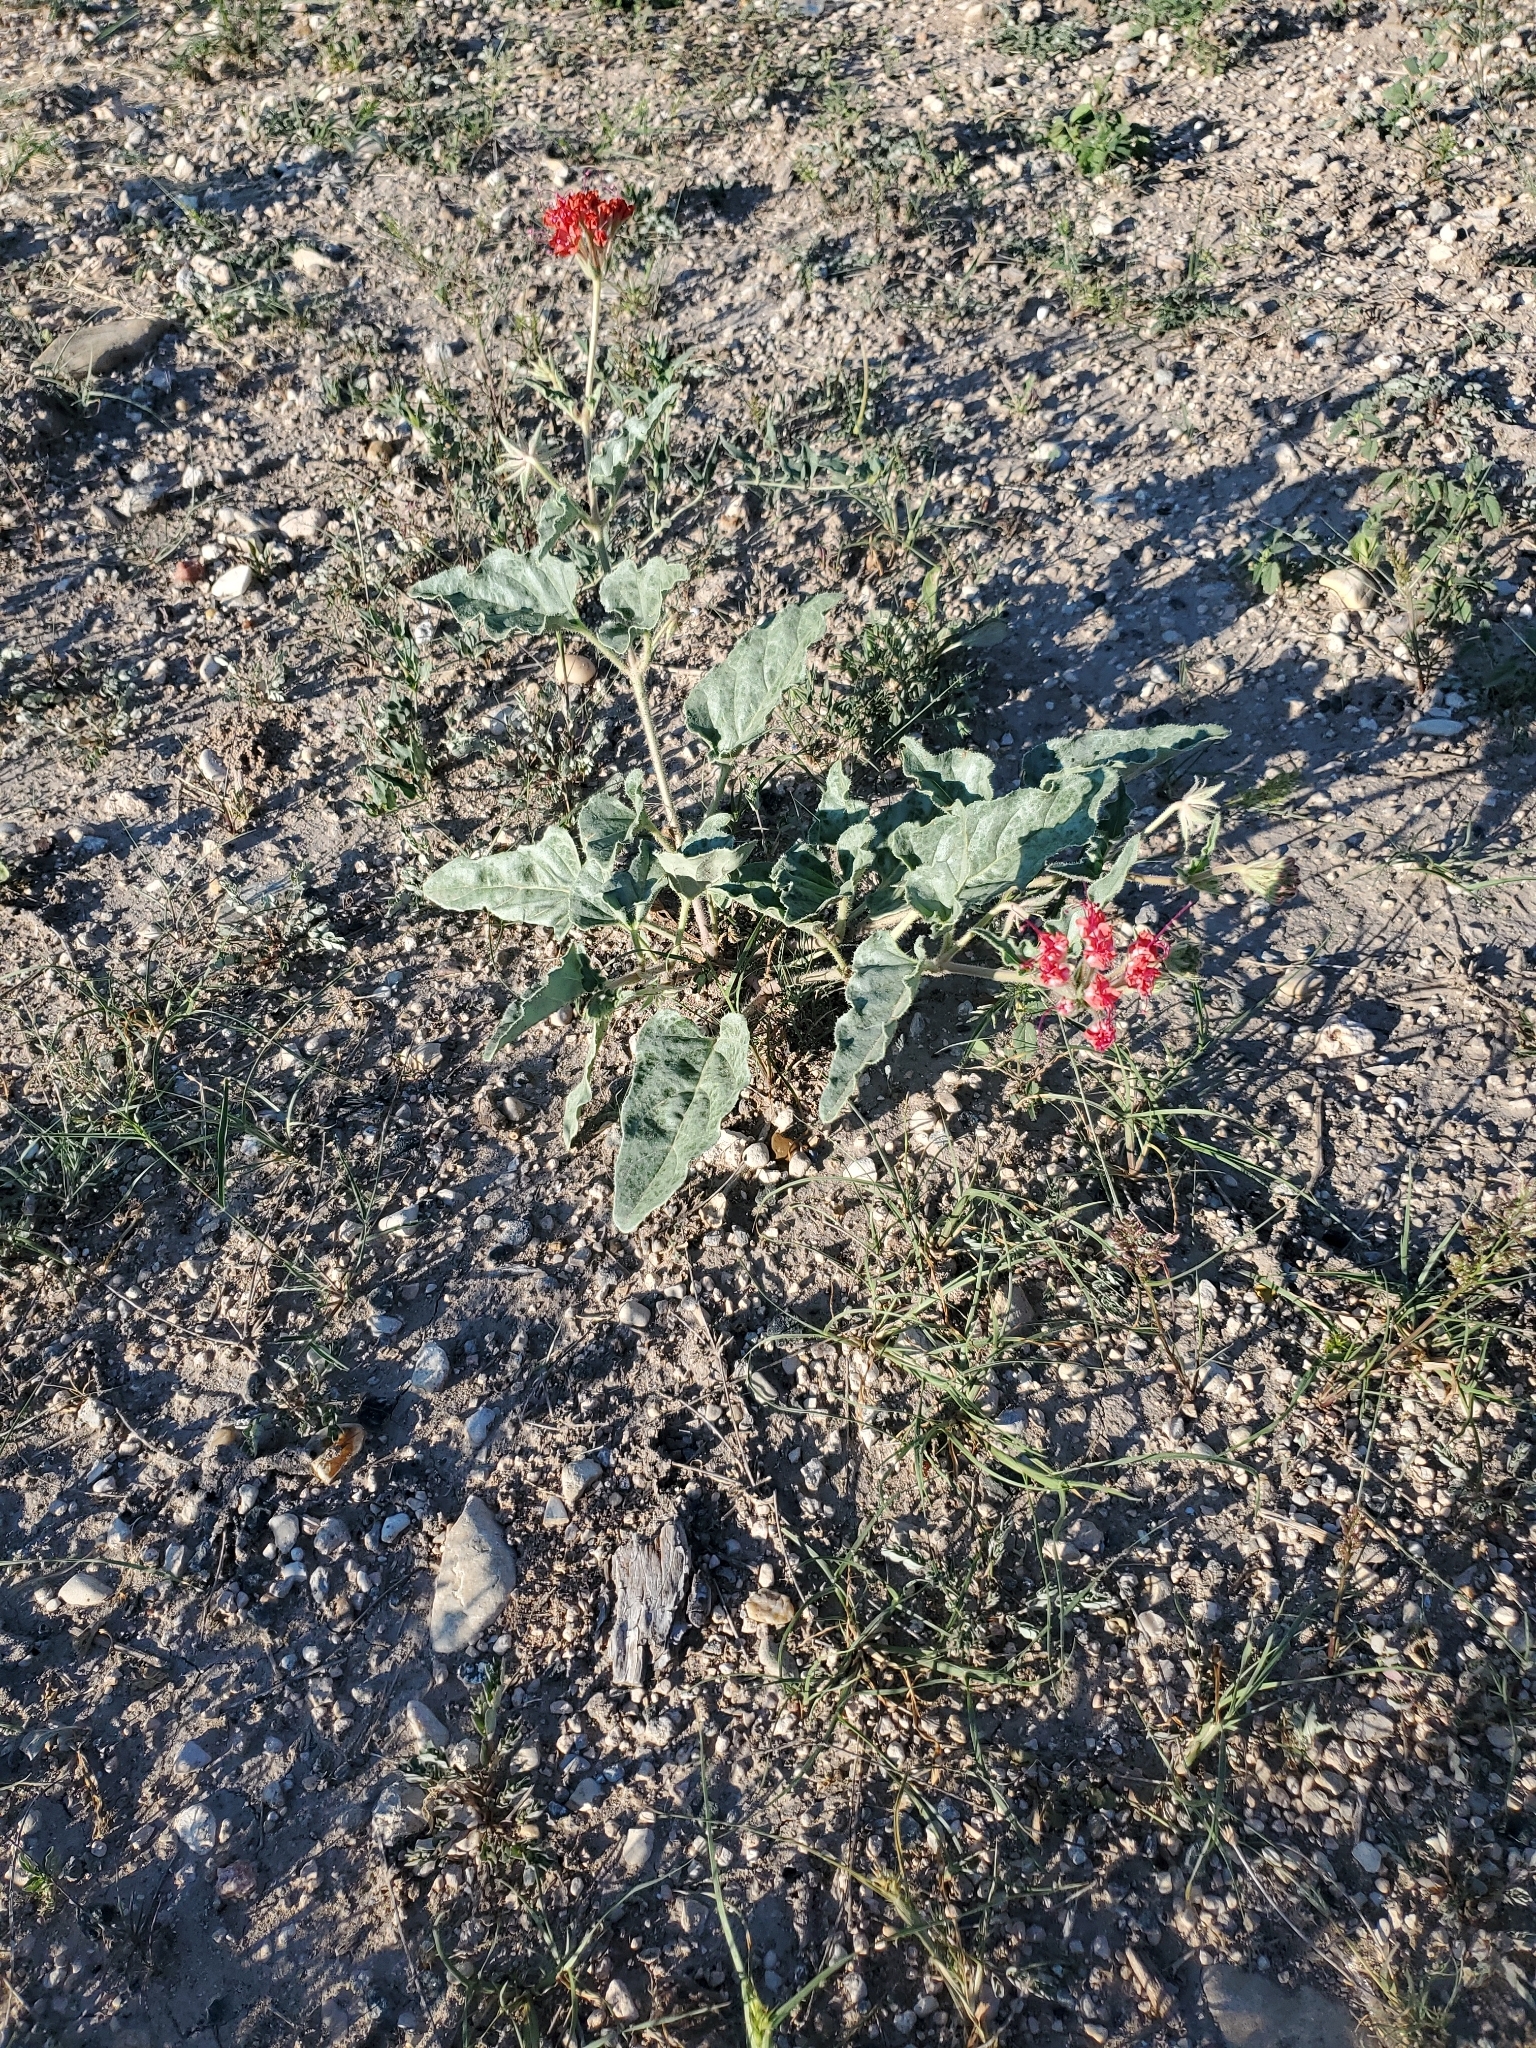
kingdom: Plantae
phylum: Tracheophyta
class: Magnoliopsida
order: Caryophyllales
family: Nyctaginaceae
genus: Nyctaginia
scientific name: Nyctaginia capitata
